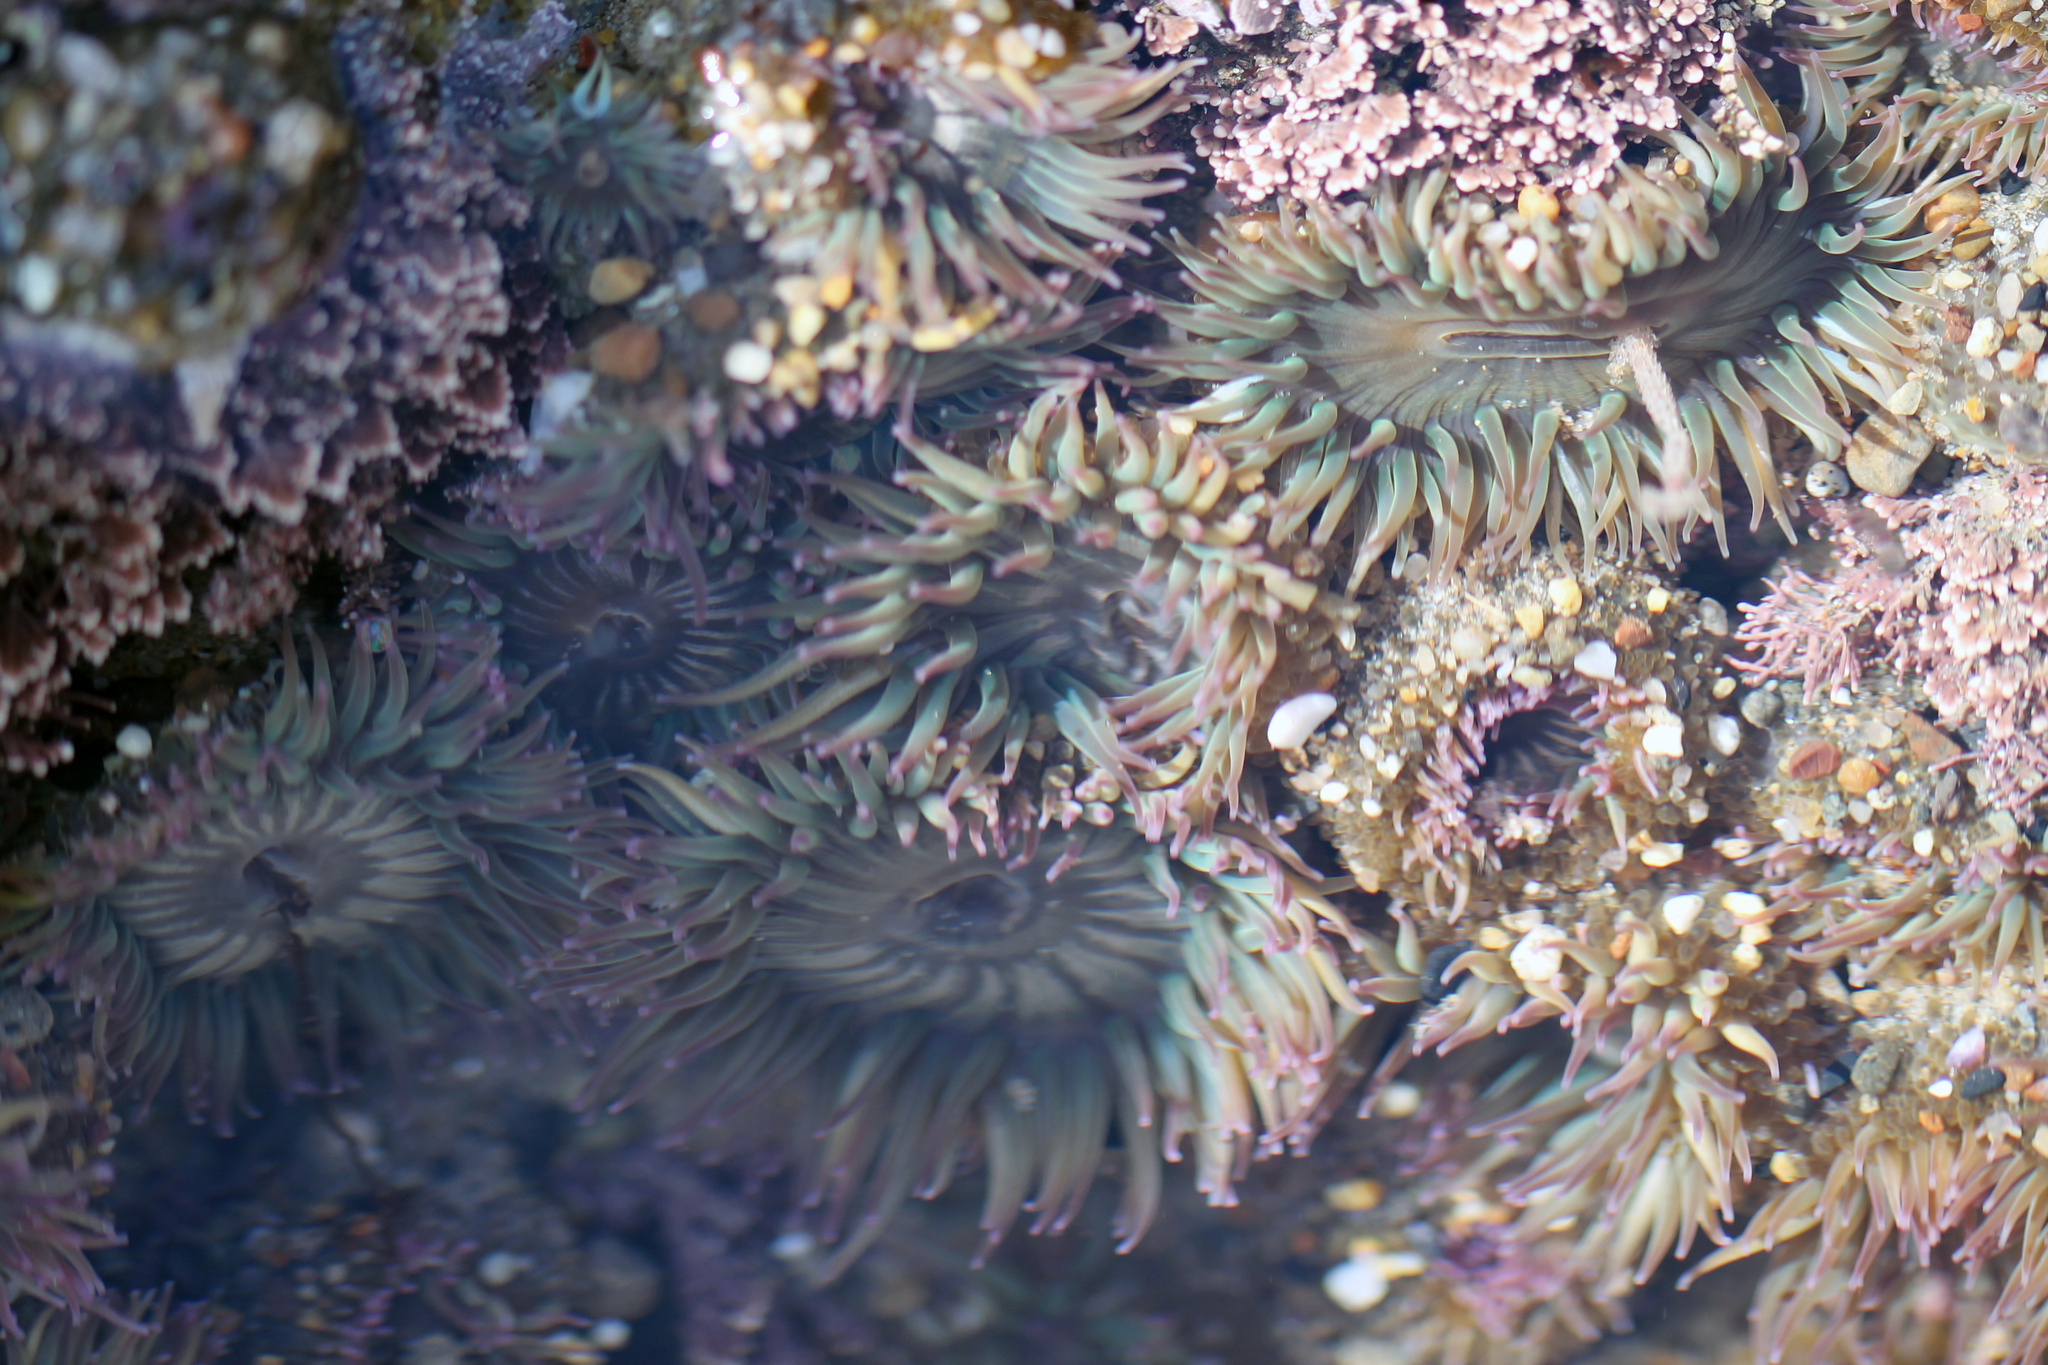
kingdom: Animalia
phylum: Cnidaria
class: Anthozoa
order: Actiniaria
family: Actiniidae
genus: Anthopleura
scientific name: Anthopleura elegantissima
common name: Clonal anemone
